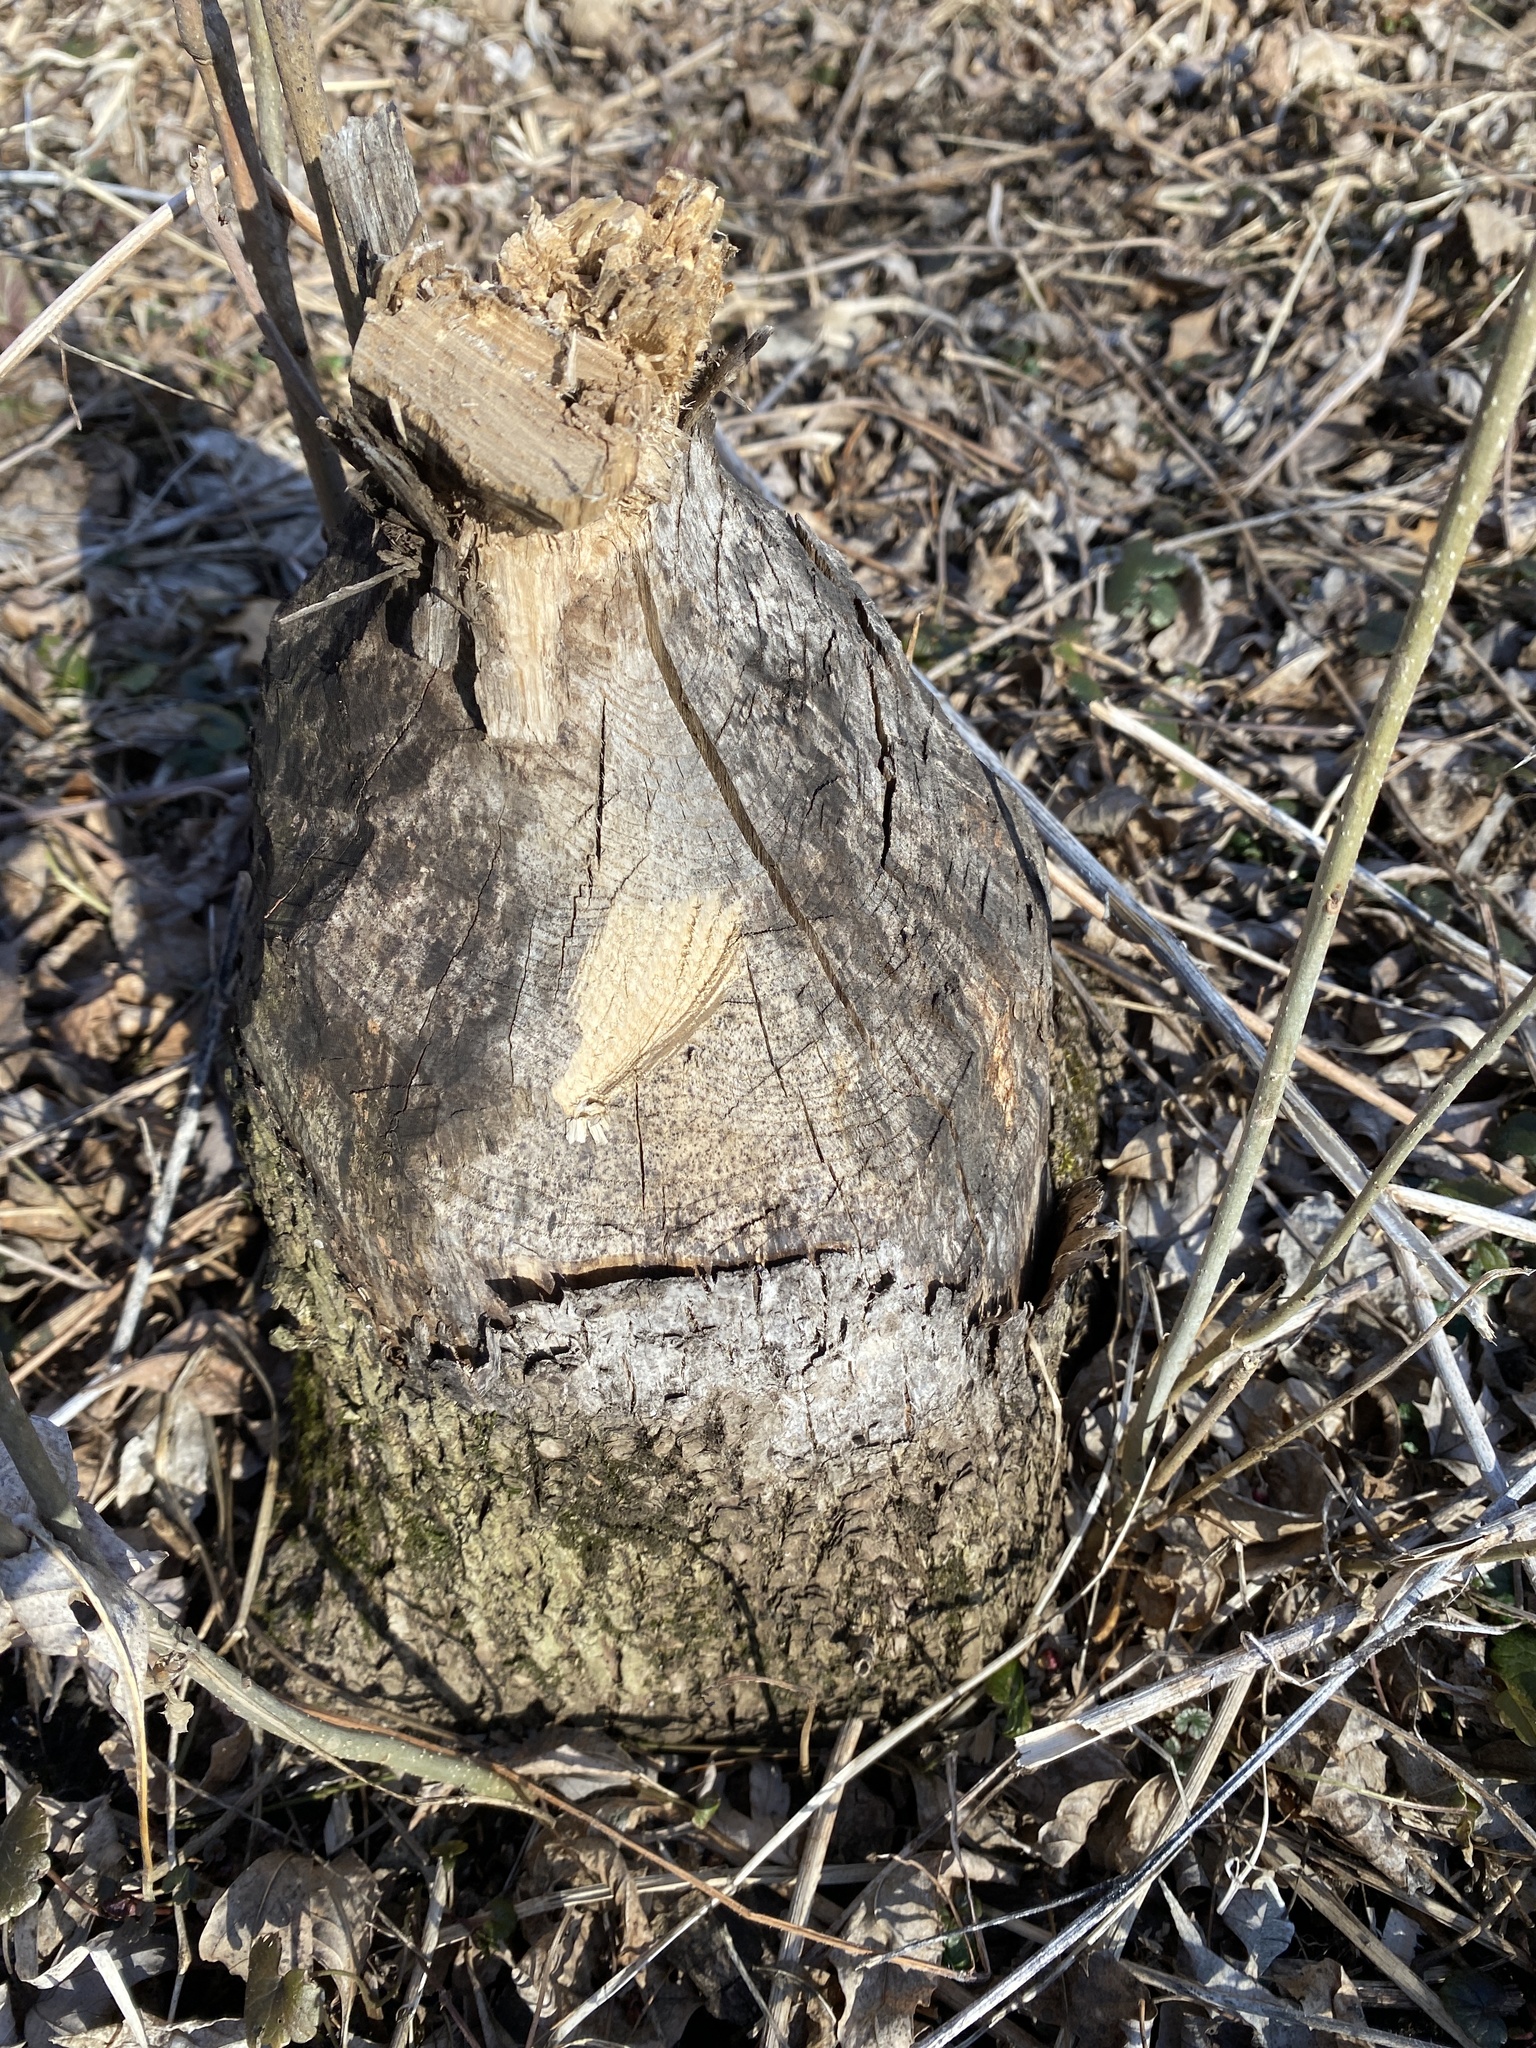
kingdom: Animalia
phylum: Chordata
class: Mammalia
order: Rodentia
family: Castoridae
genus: Castor
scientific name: Castor canadensis
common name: American beaver
